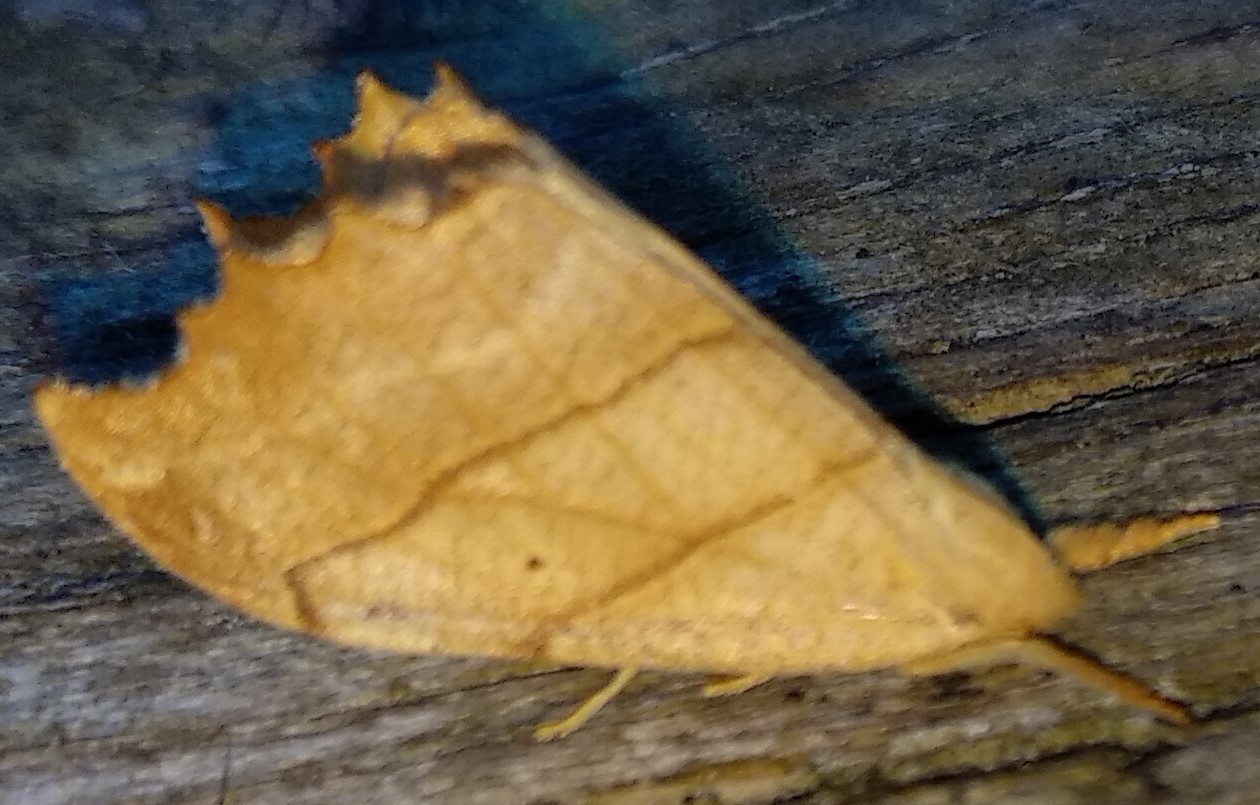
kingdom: Animalia
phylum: Arthropoda
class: Insecta
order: Lepidoptera
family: Drepanidae
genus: Falcaria
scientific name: Falcaria bilineata
